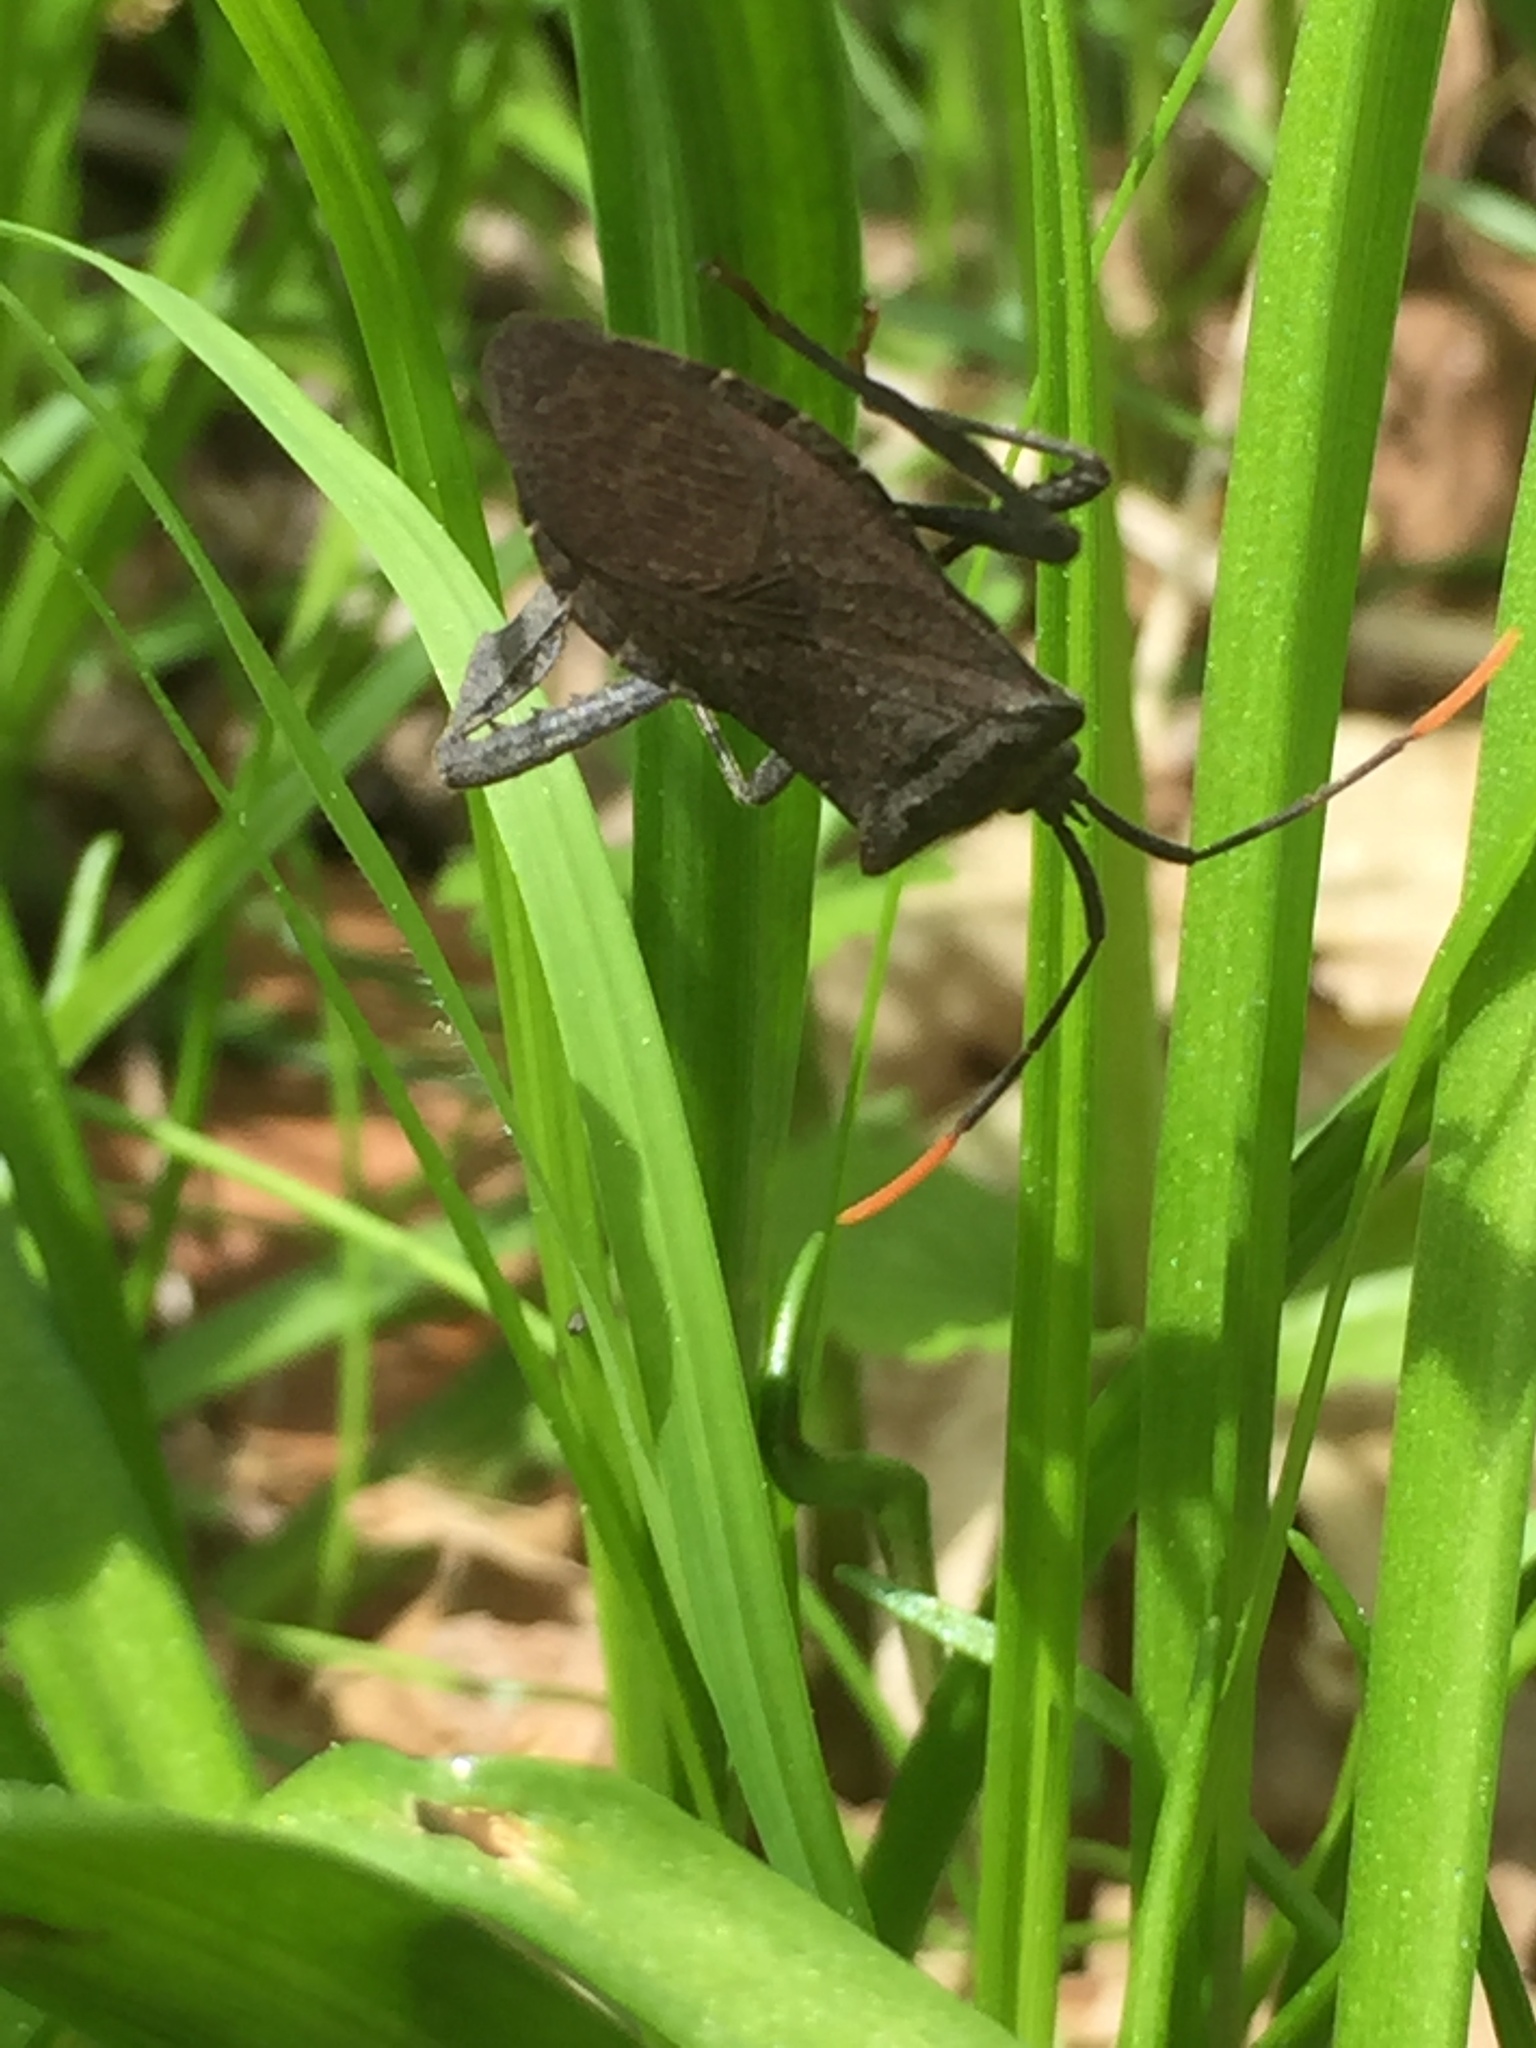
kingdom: Animalia
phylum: Arthropoda
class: Insecta
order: Hemiptera
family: Coreidae
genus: Acanthocephala
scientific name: Acanthocephala terminalis
